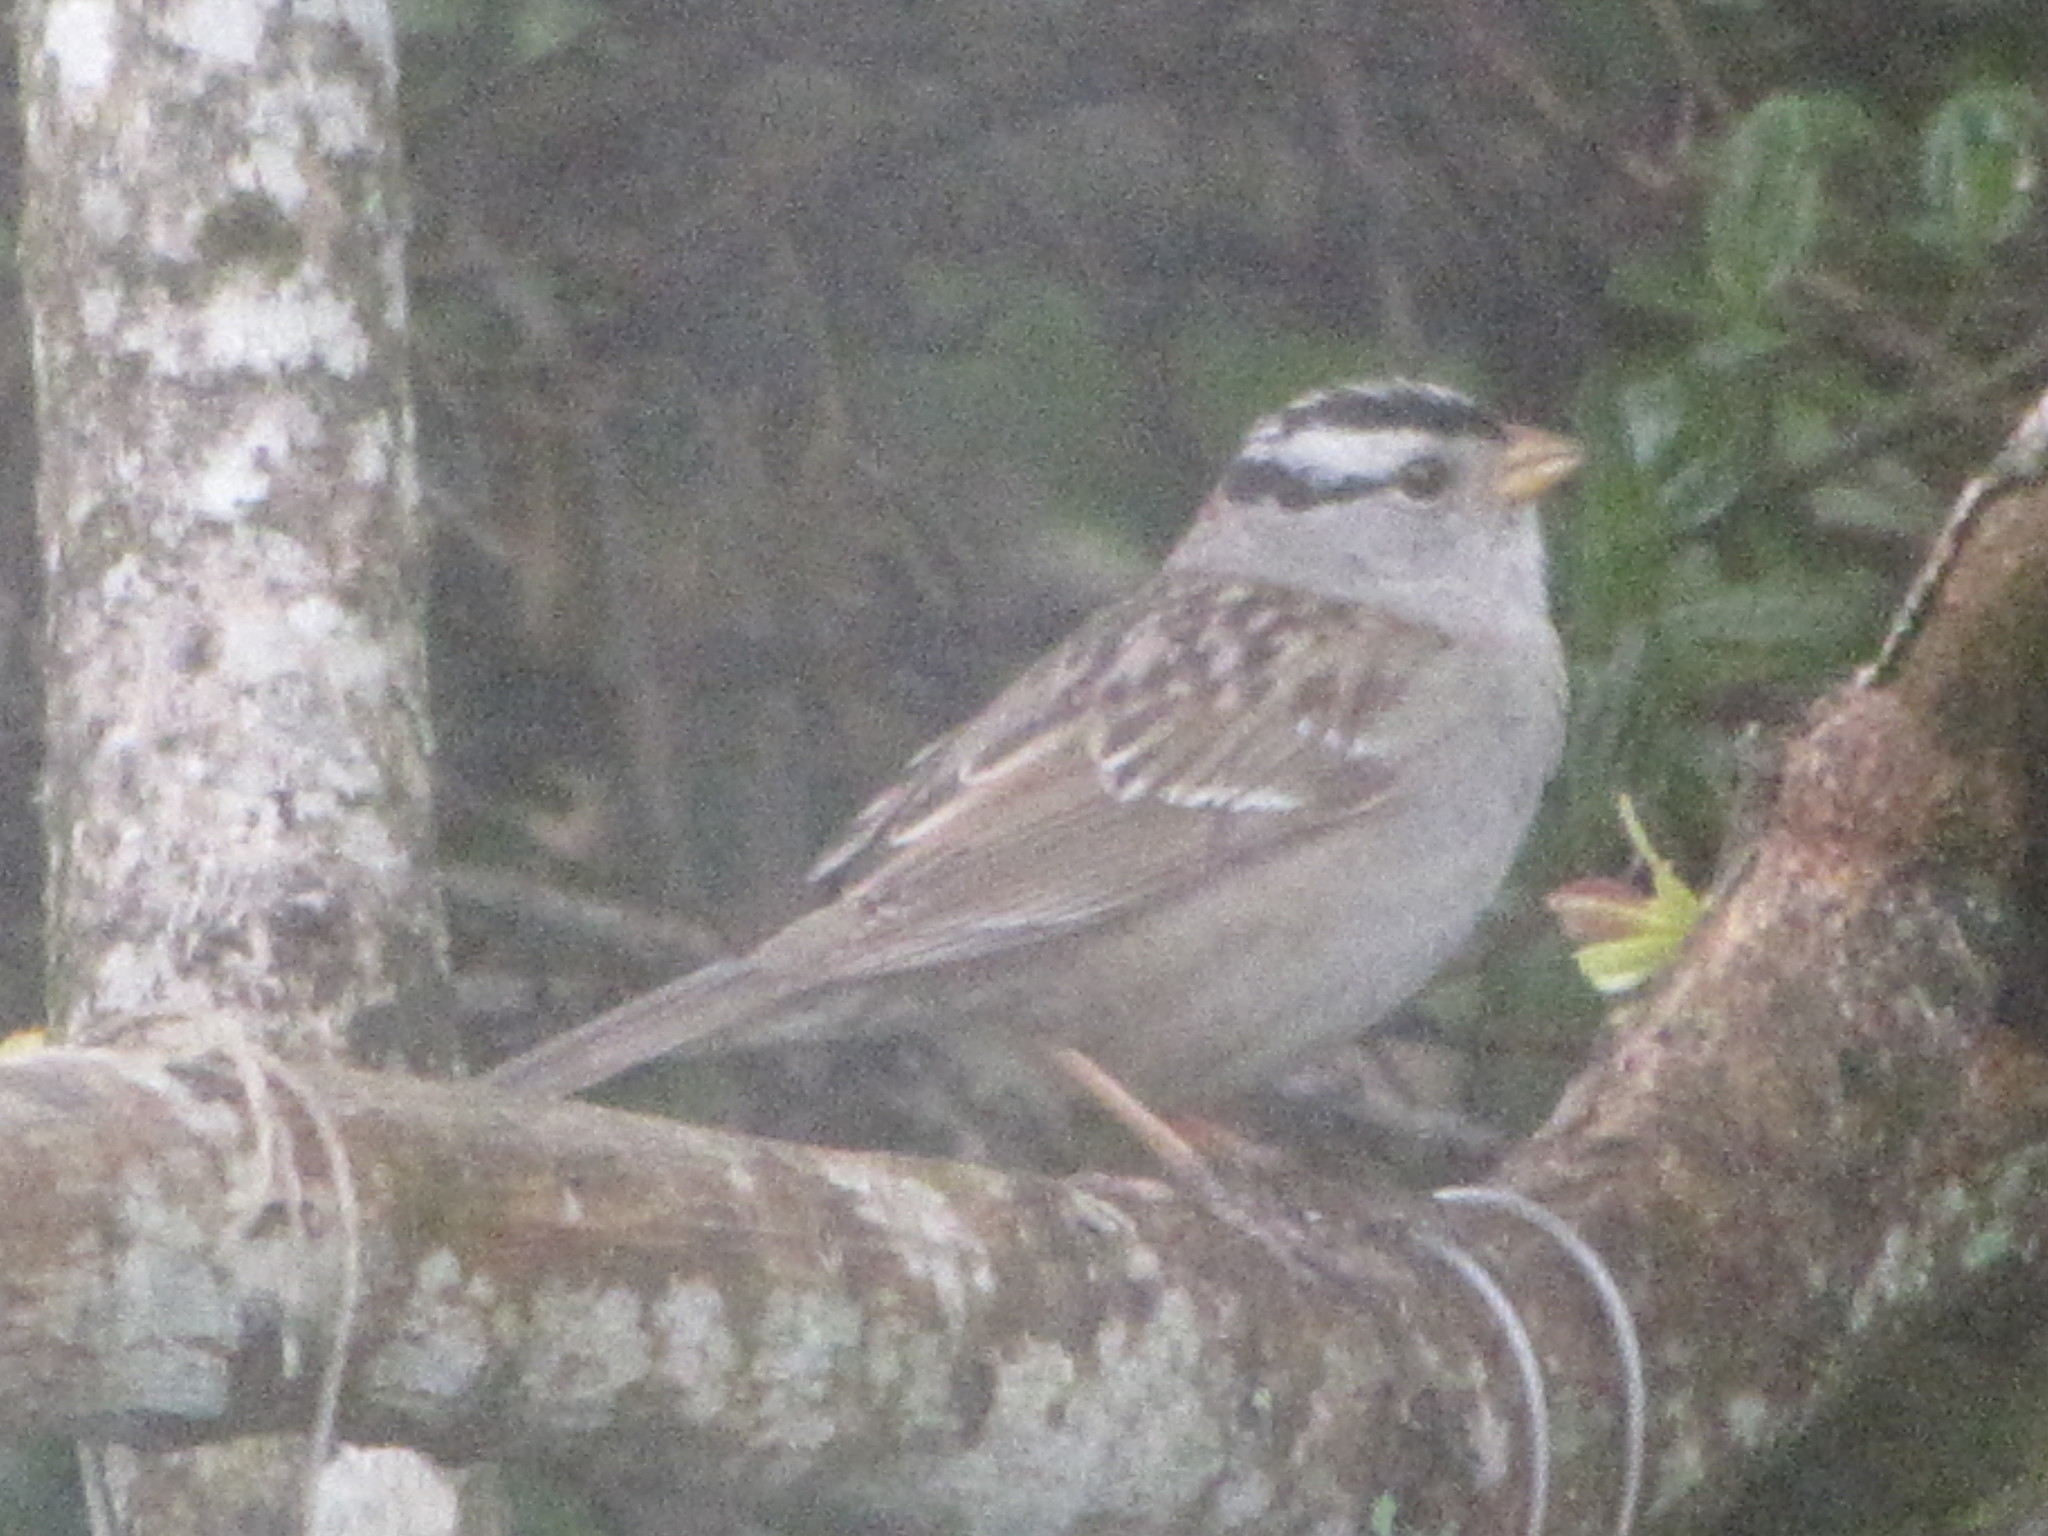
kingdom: Animalia
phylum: Chordata
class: Aves
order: Passeriformes
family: Passerellidae
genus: Zonotrichia
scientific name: Zonotrichia leucophrys
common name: White-crowned sparrow
